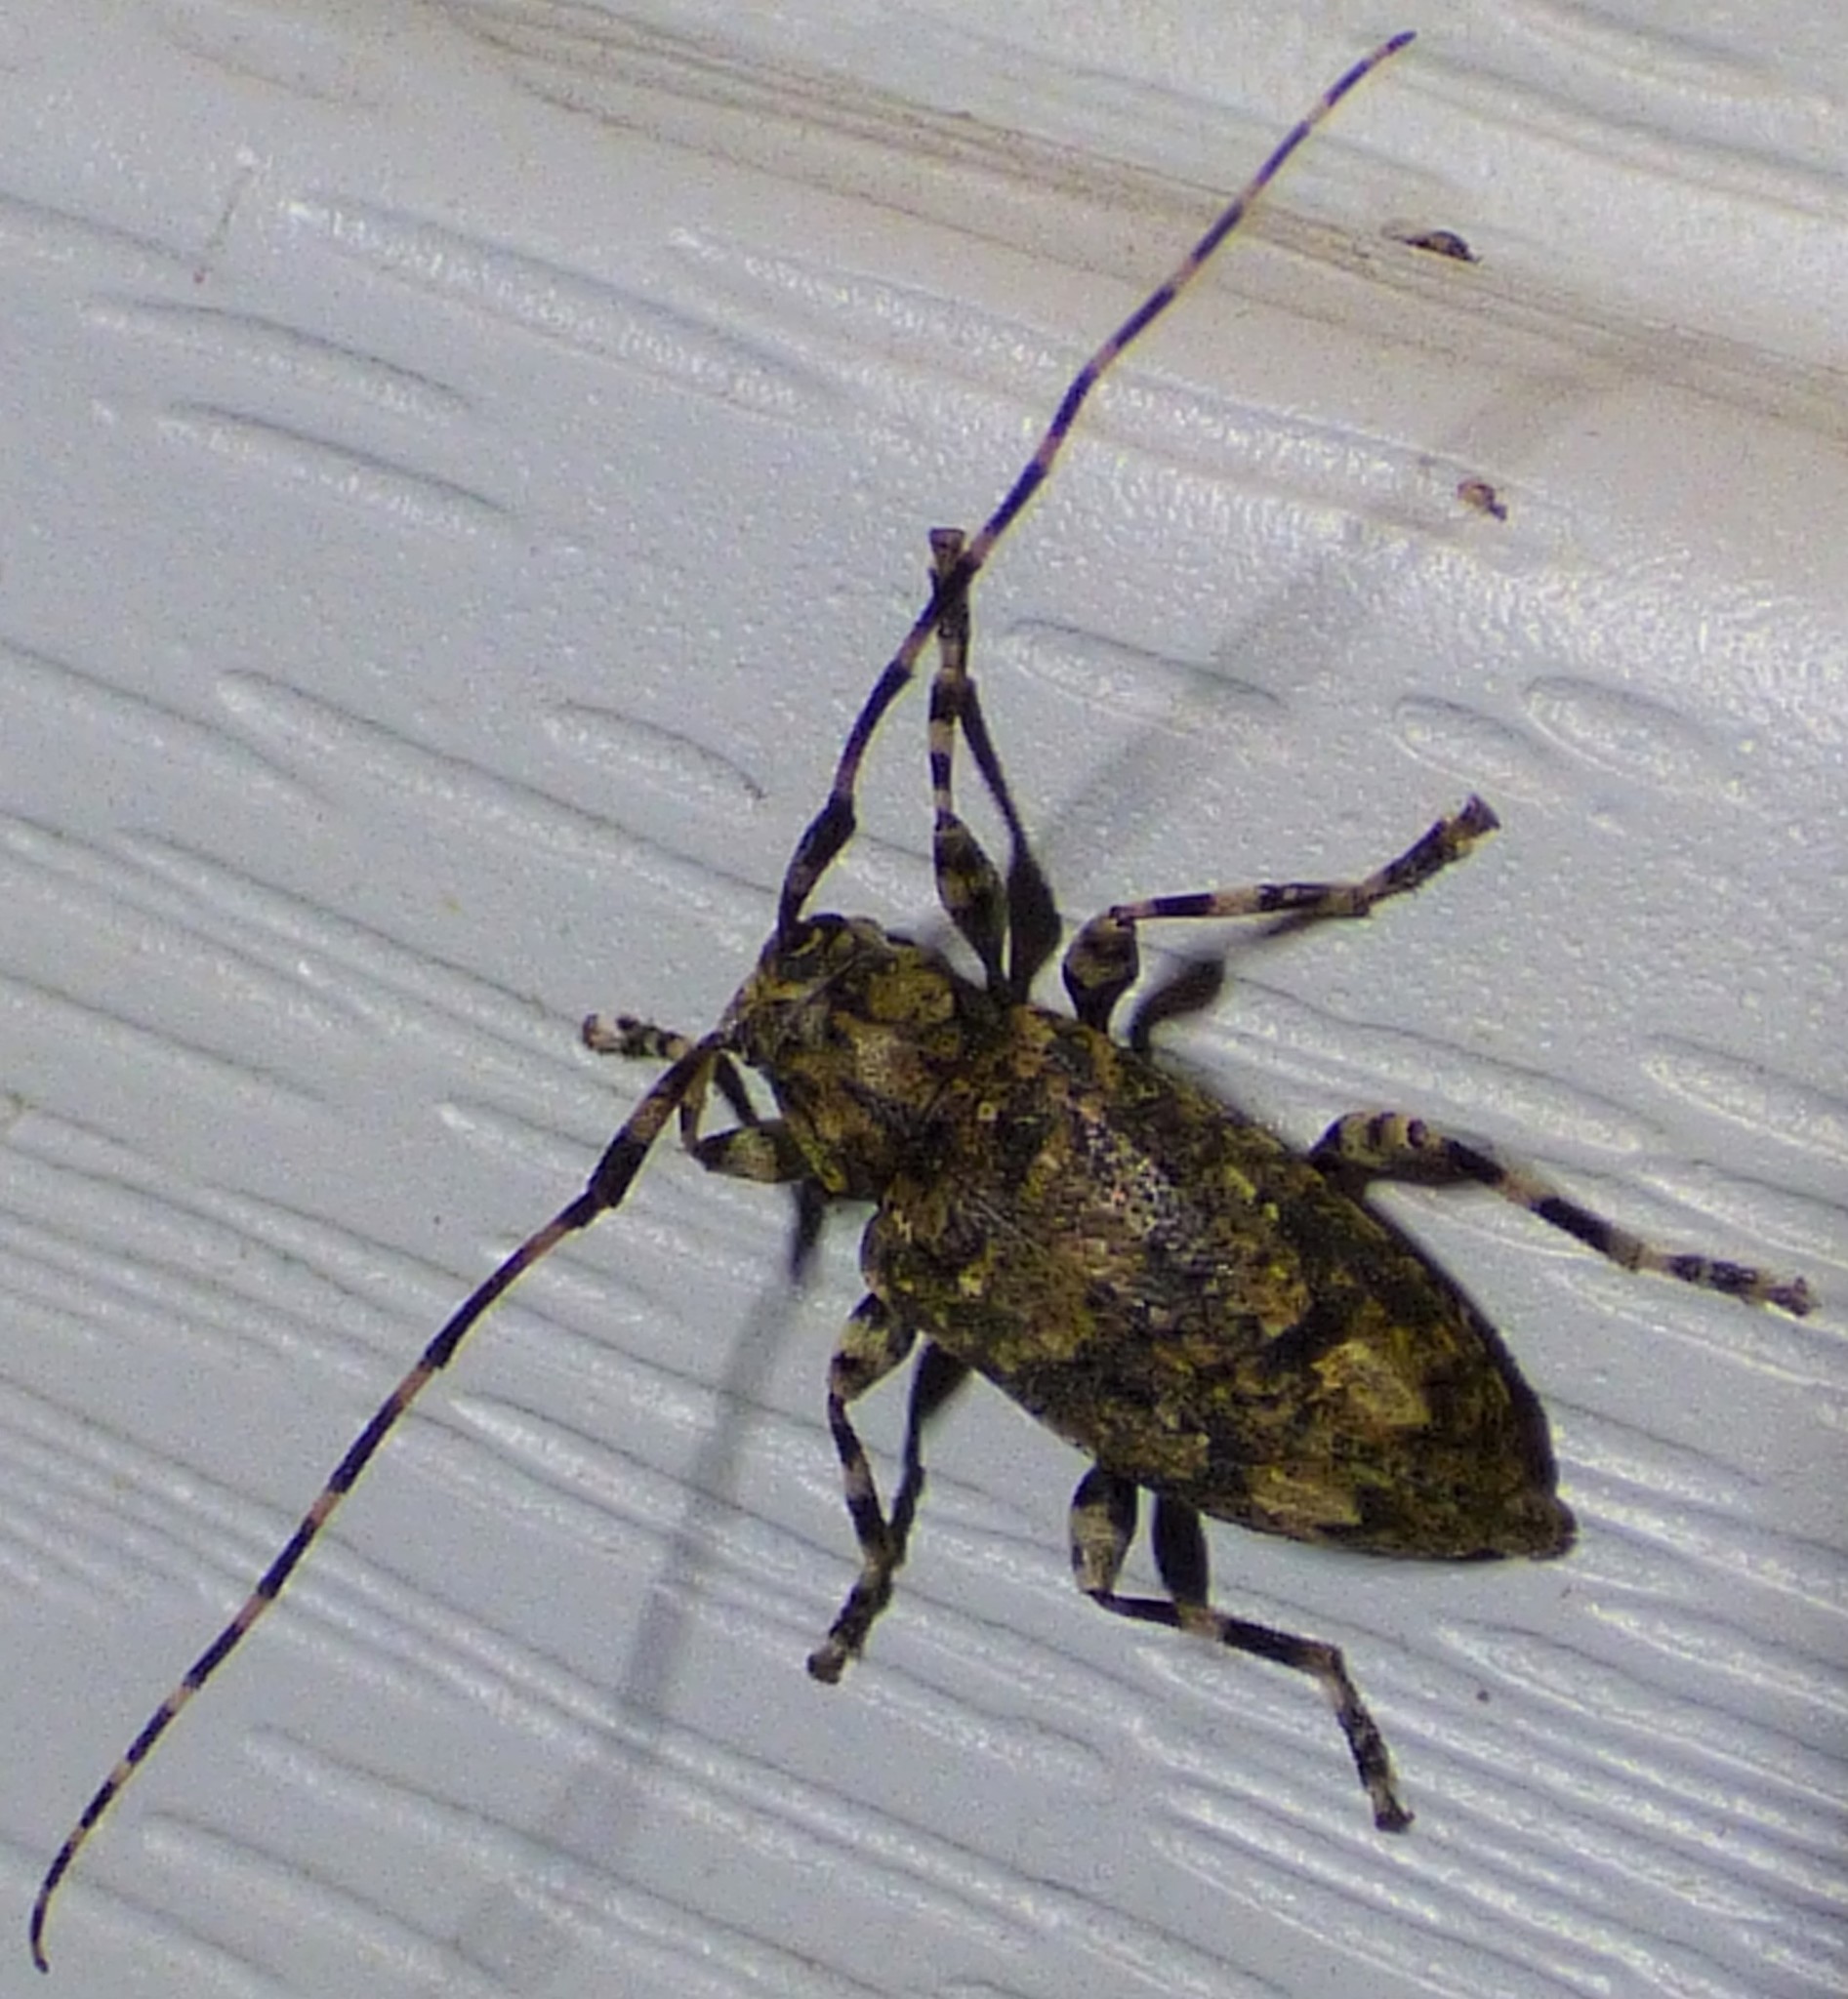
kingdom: Animalia
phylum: Arthropoda
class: Insecta
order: Coleoptera
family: Cerambycidae
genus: Astyleiopus
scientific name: Astyleiopus variegatus
